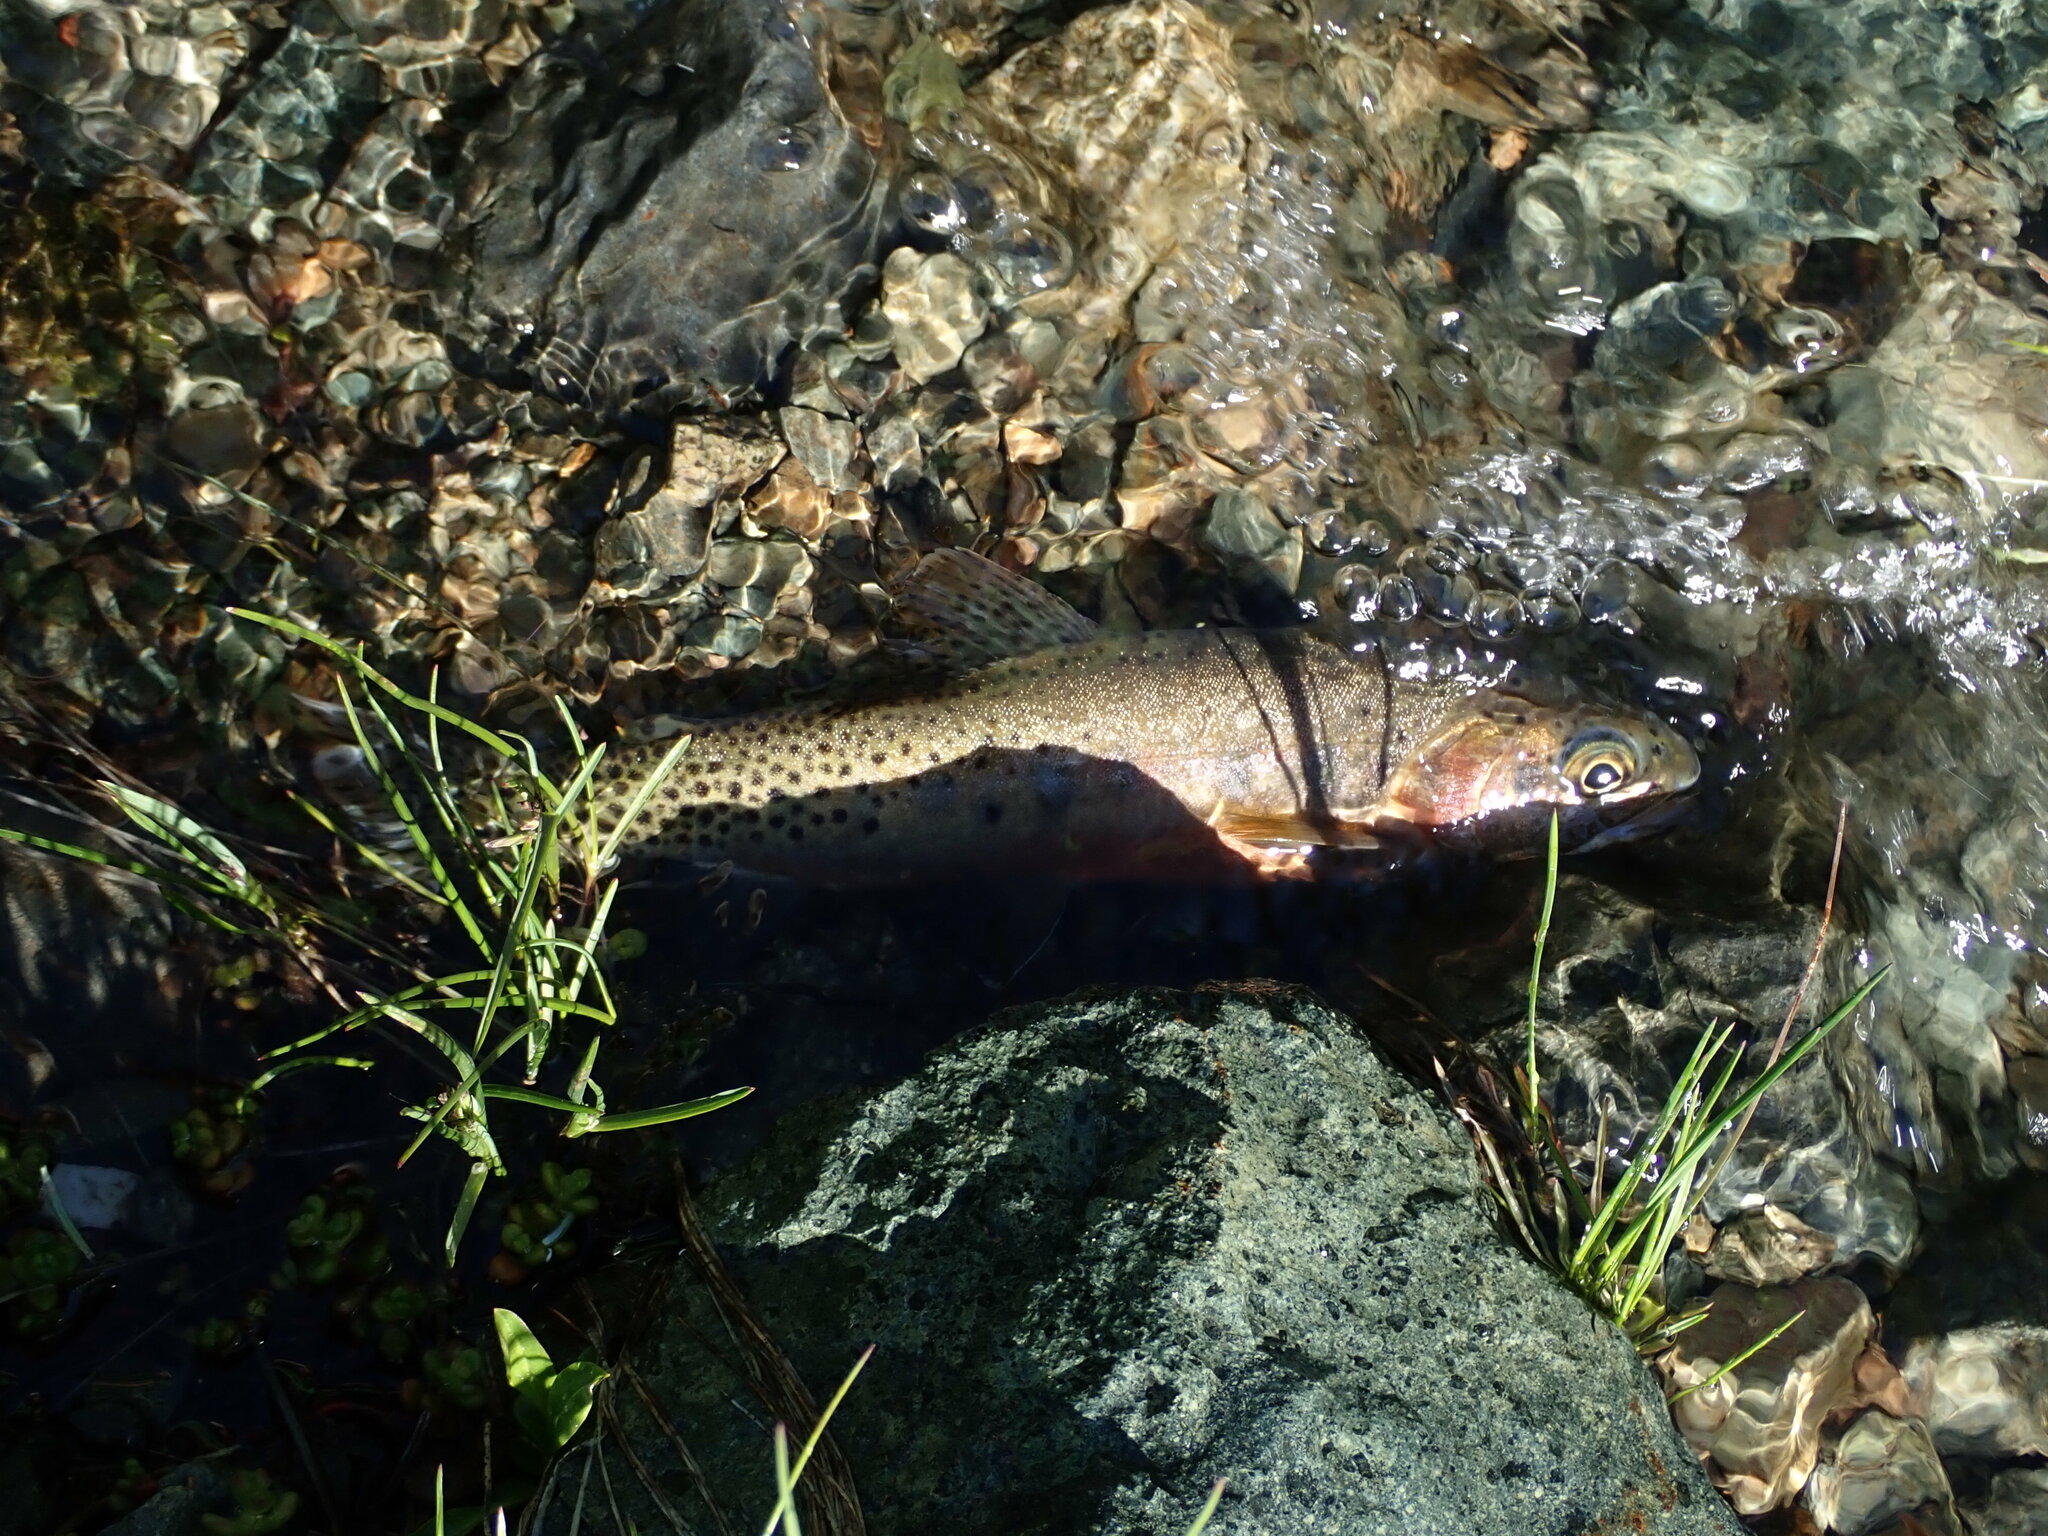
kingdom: Animalia
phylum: Chordata
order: Salmoniformes
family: Salmonidae
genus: Oncorhynchus
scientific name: Oncorhynchus
